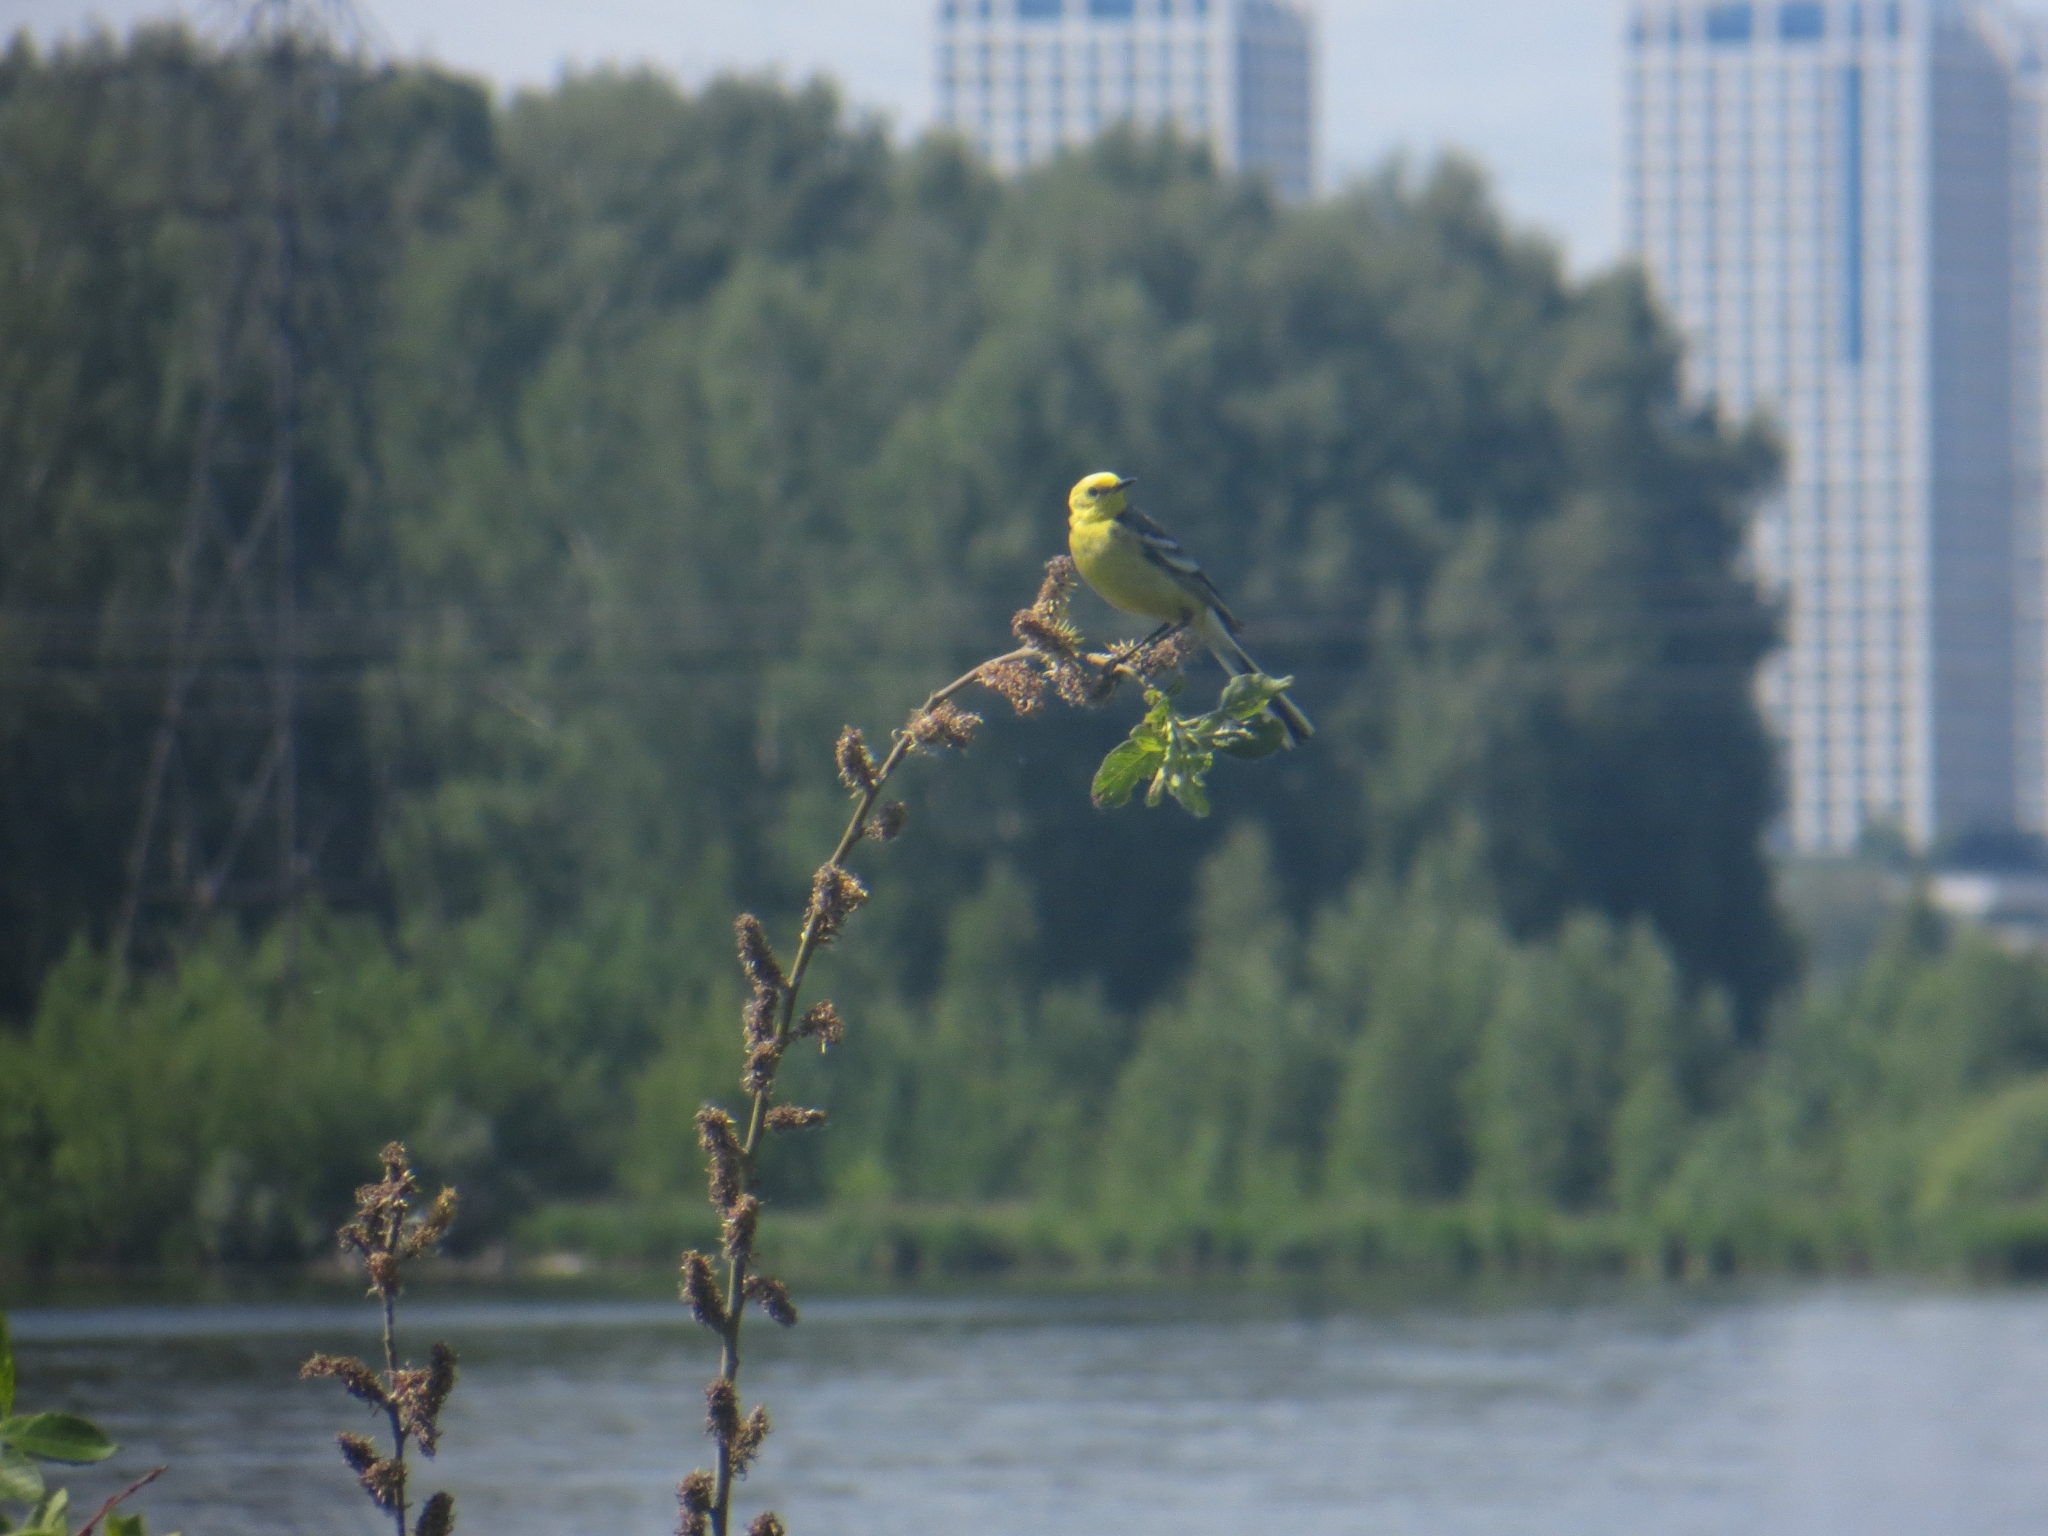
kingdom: Animalia
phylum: Chordata
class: Aves
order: Passeriformes
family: Motacillidae
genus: Motacilla
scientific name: Motacilla citreola
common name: Citrine wagtail
